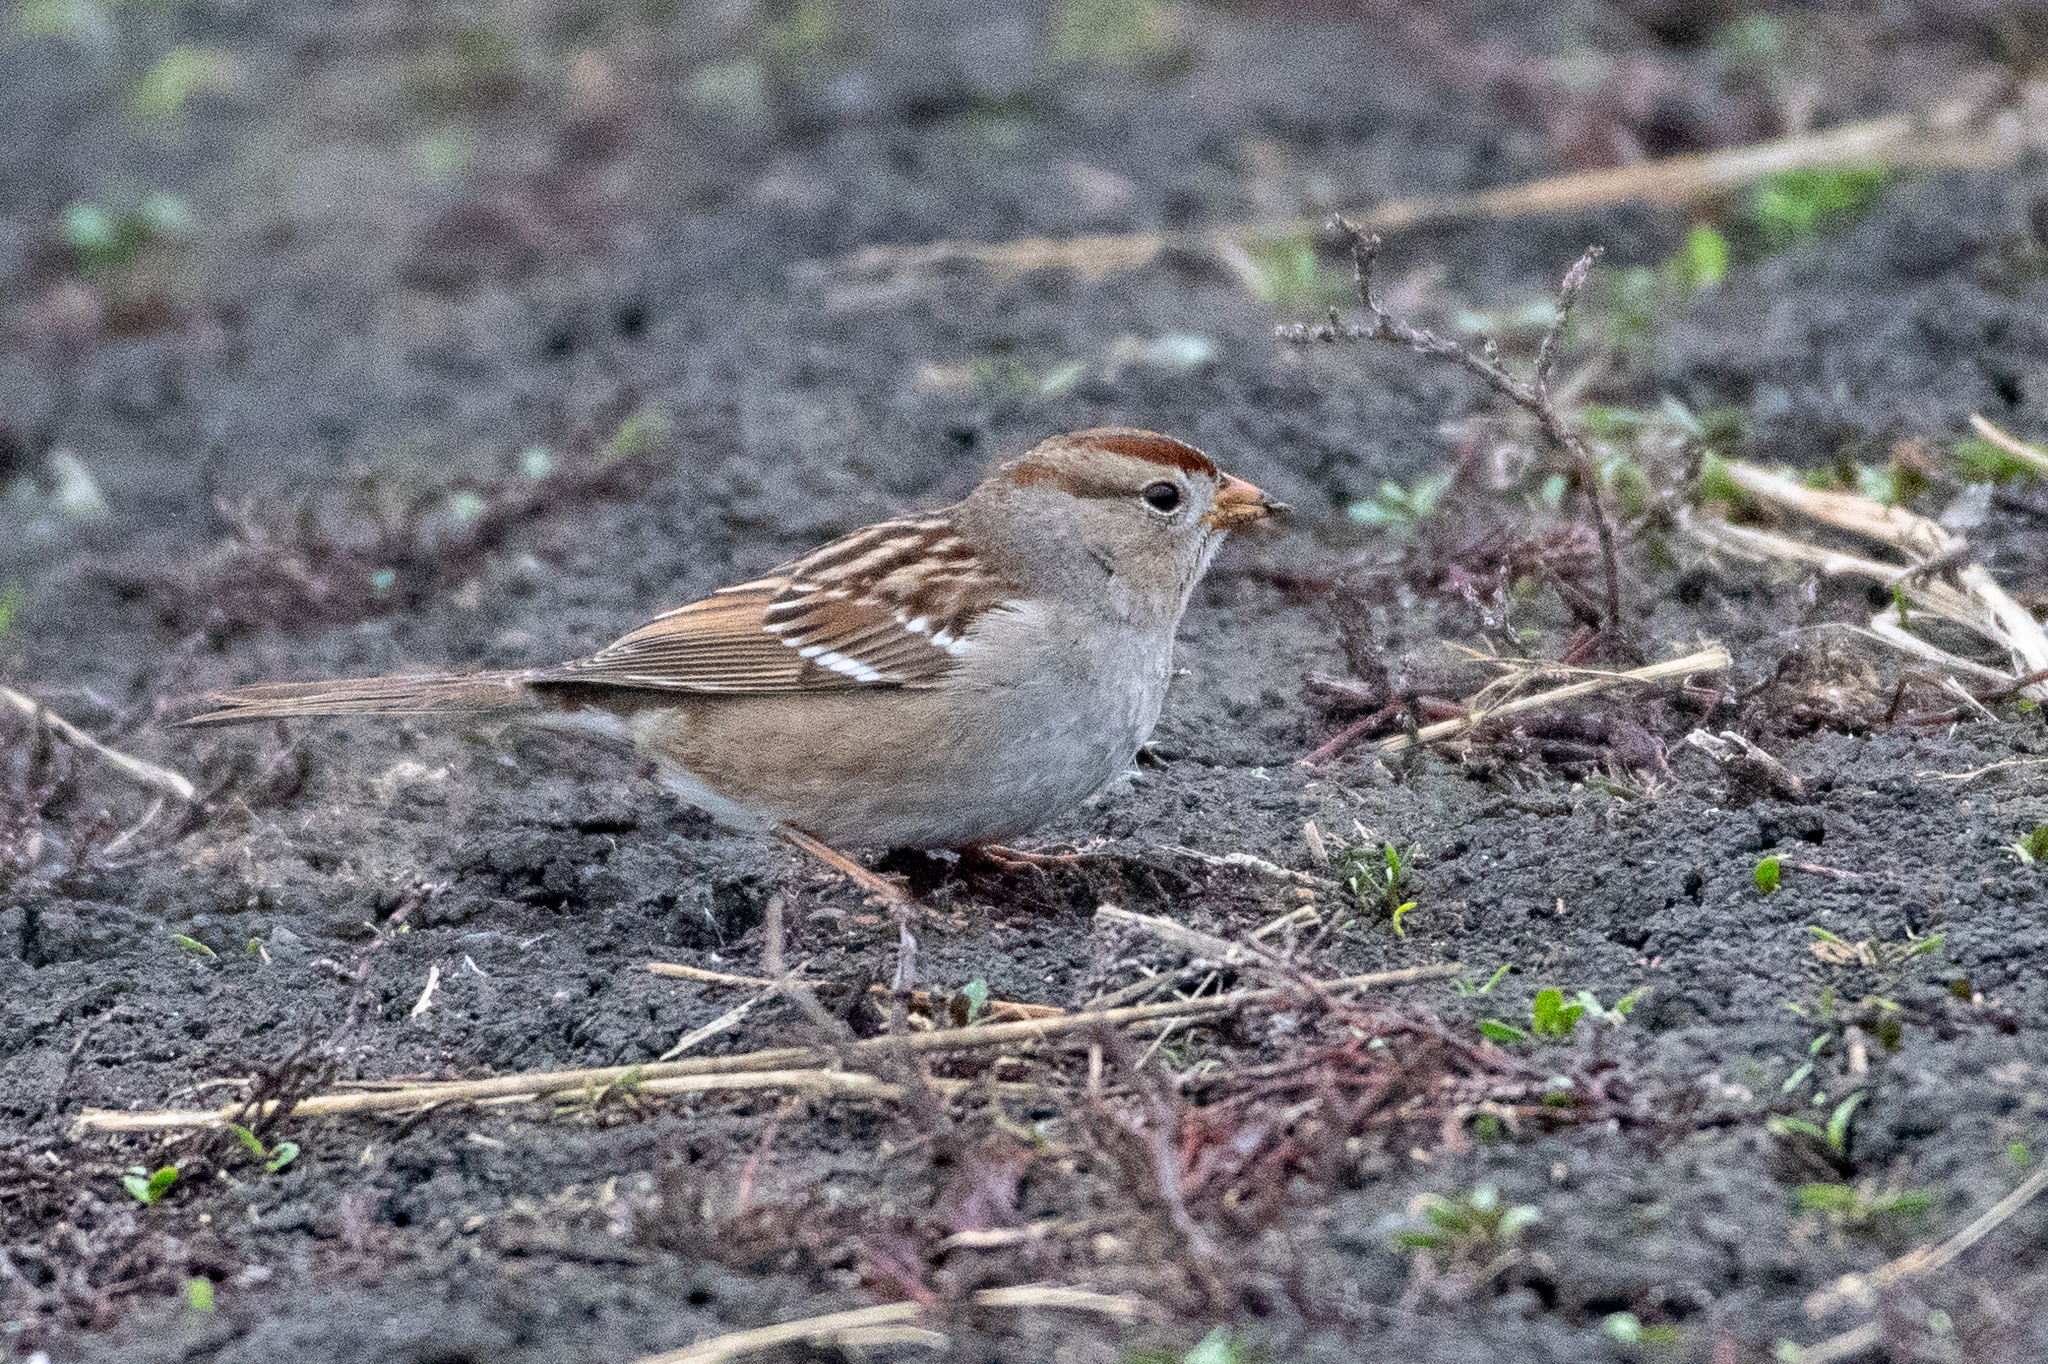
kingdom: Animalia
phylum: Chordata
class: Aves
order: Passeriformes
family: Passerellidae
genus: Zonotrichia
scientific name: Zonotrichia leucophrys
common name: White-crowned sparrow
